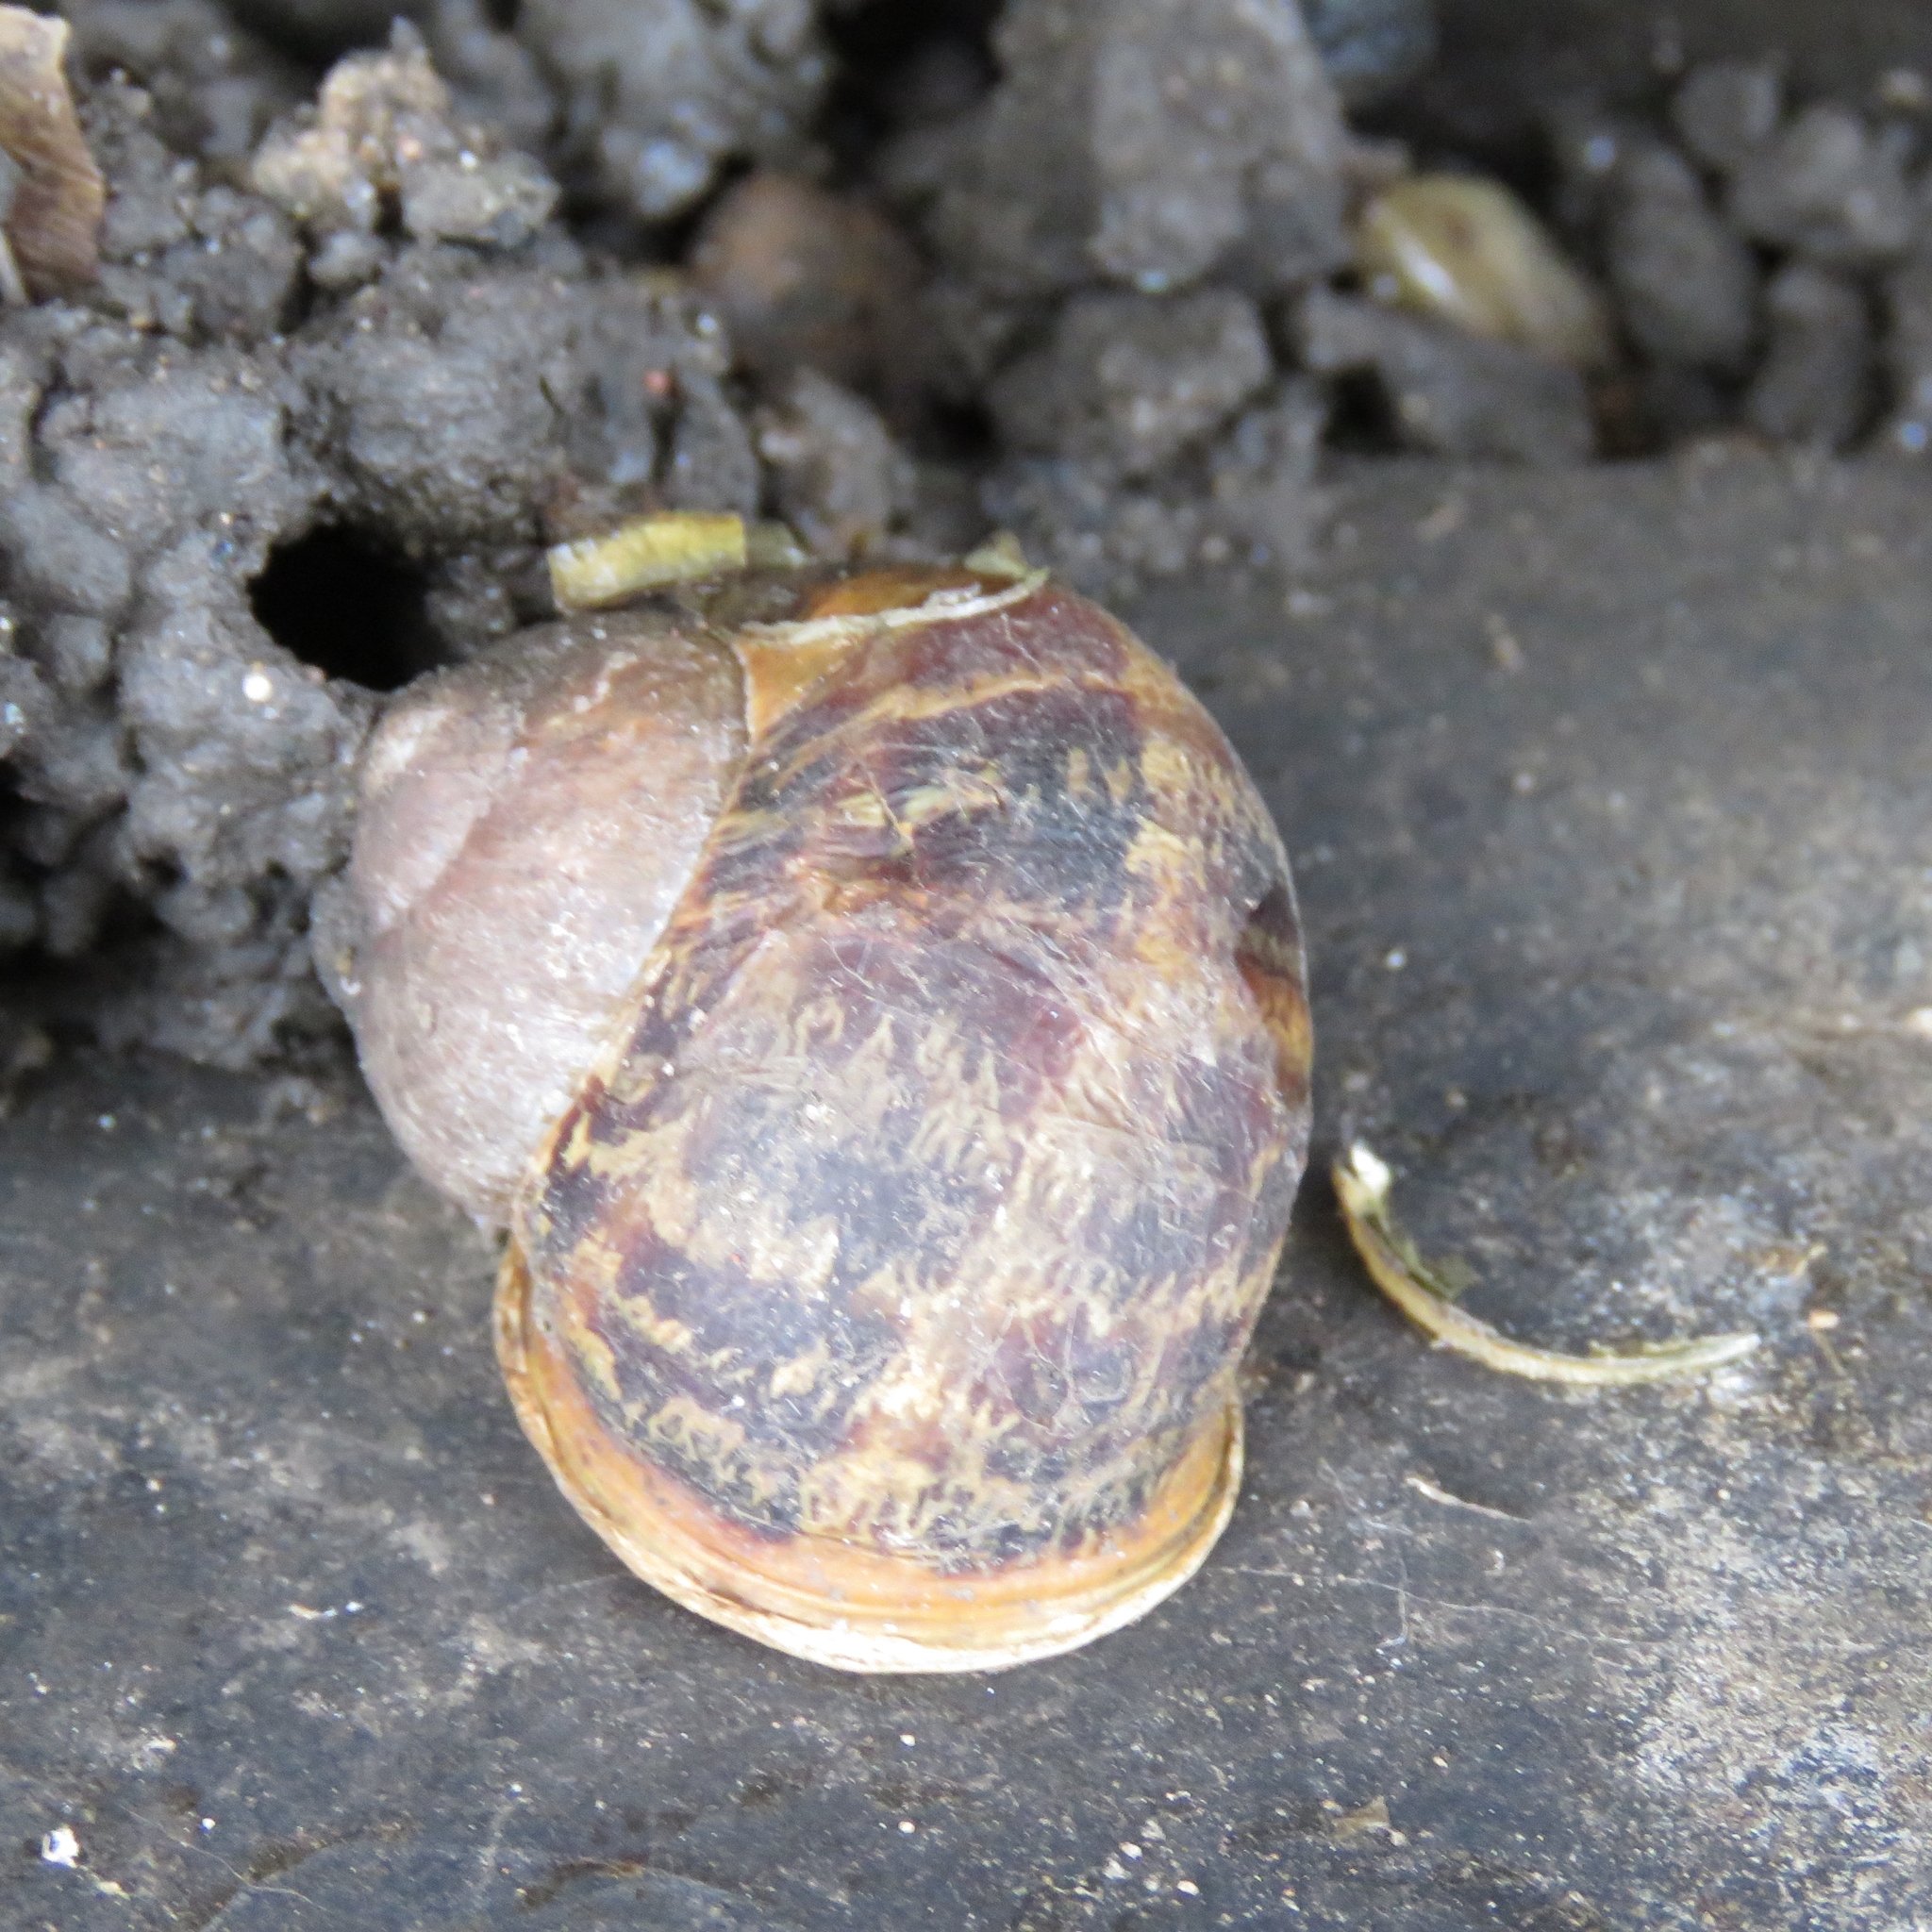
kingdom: Animalia
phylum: Mollusca
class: Gastropoda
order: Stylommatophora
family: Helicidae
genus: Cornu
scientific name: Cornu aspersum
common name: Brown garden snail
